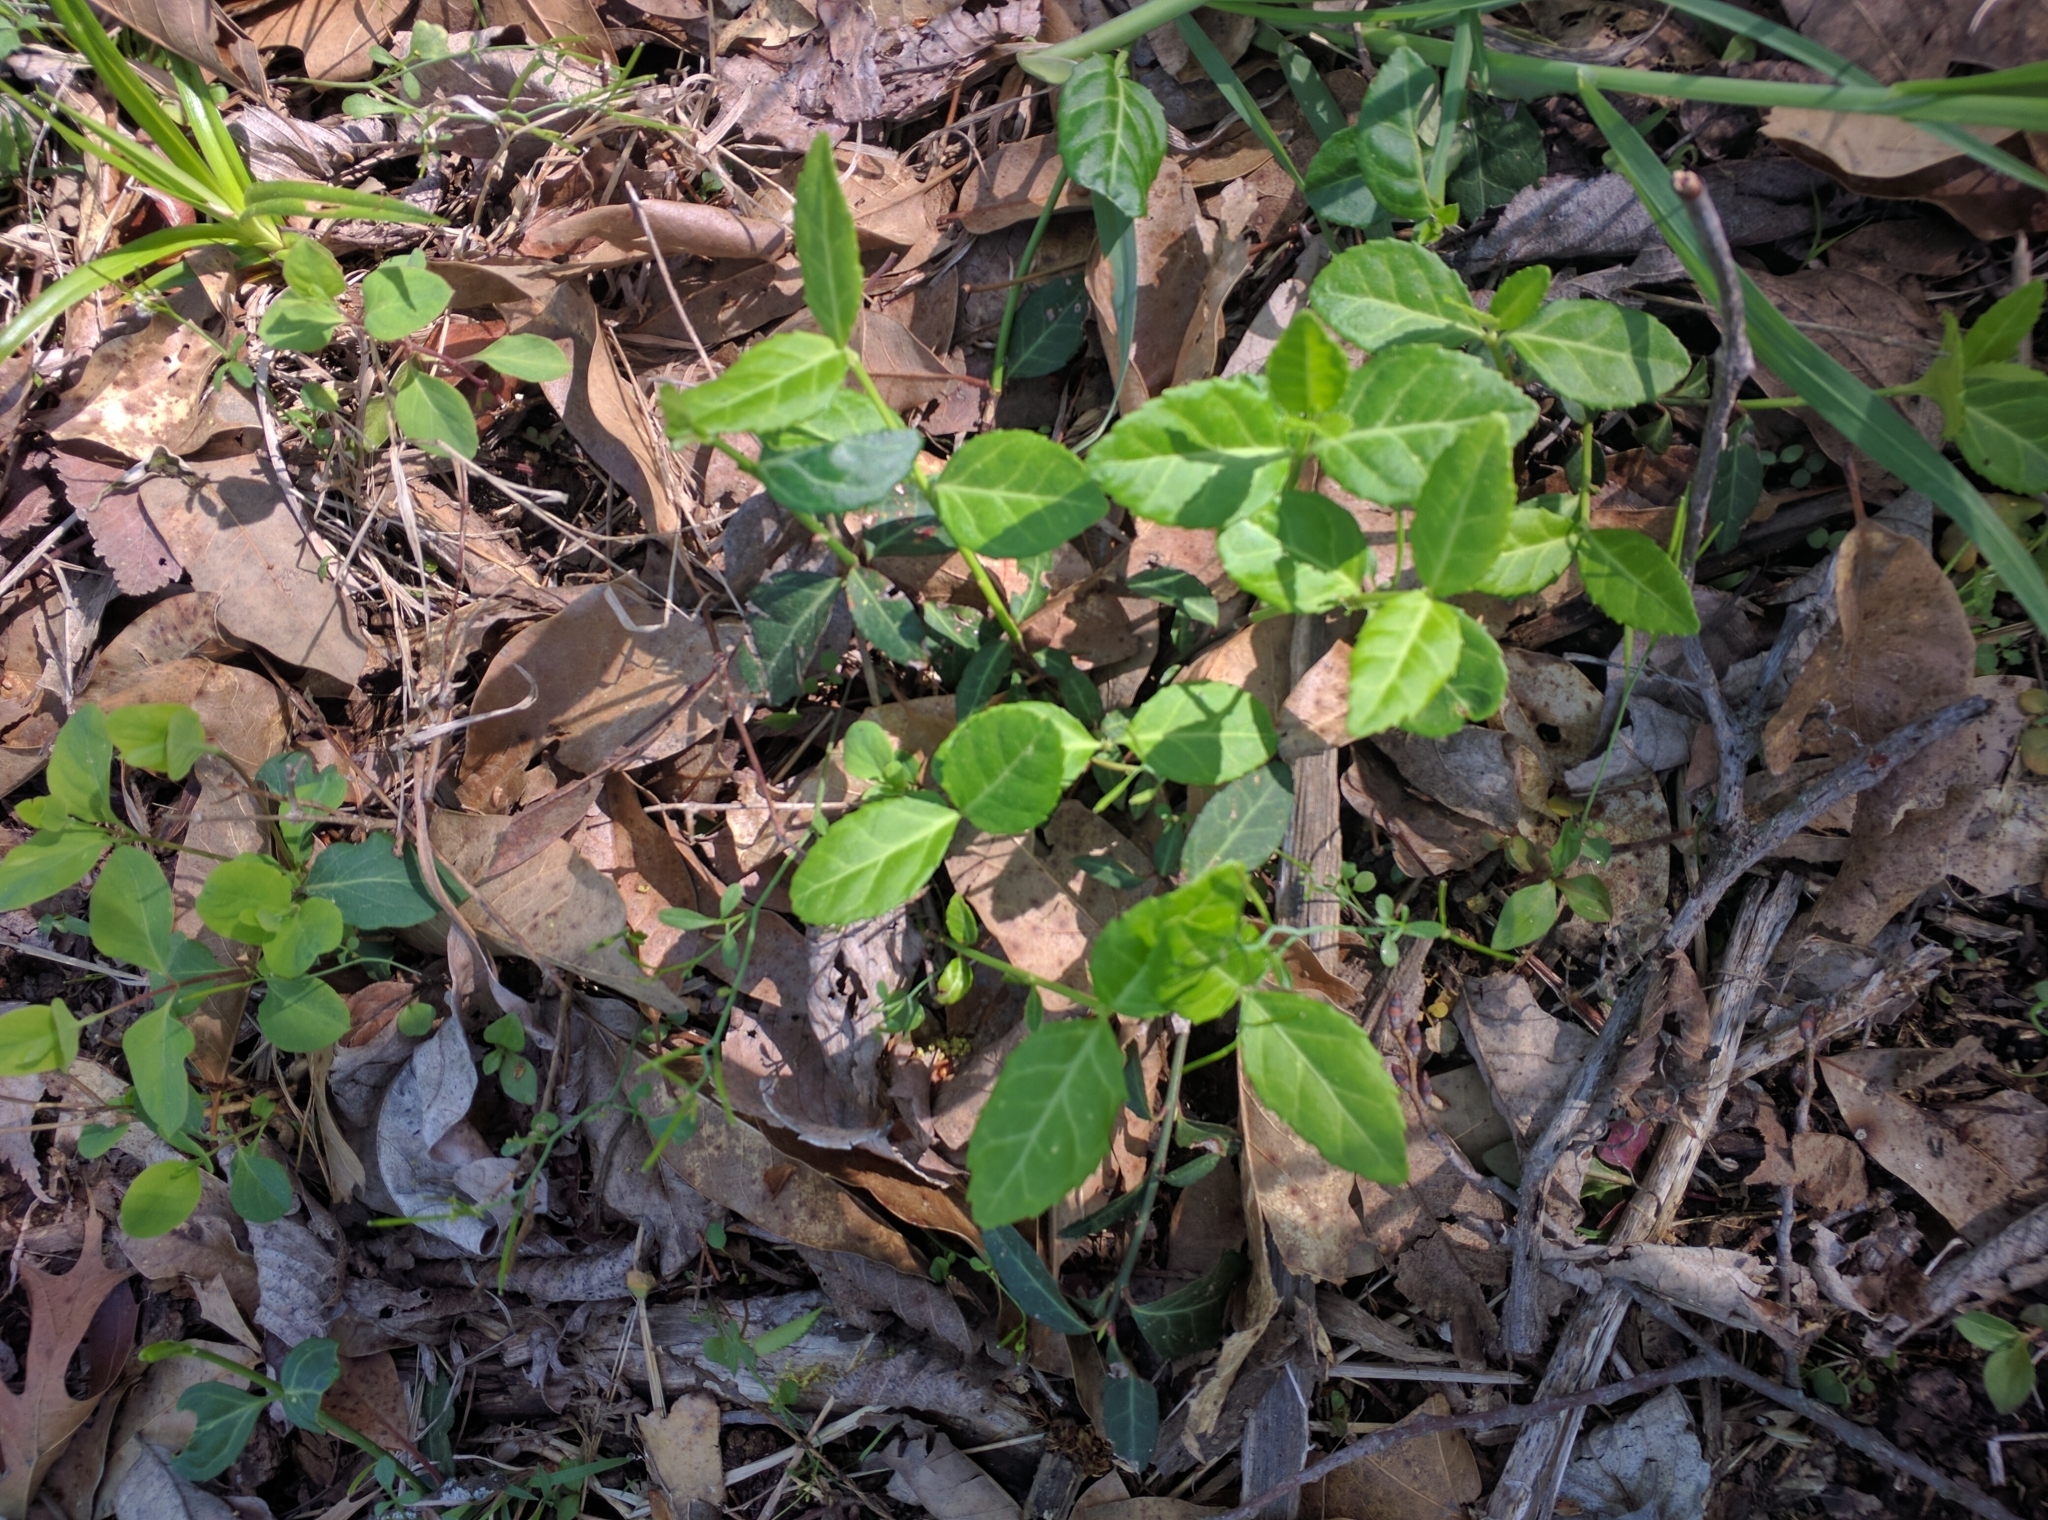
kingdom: Plantae
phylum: Tracheophyta
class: Magnoliopsida
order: Celastrales
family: Celastraceae
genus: Euonymus
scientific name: Euonymus fortunei
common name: Climbing euonymus
